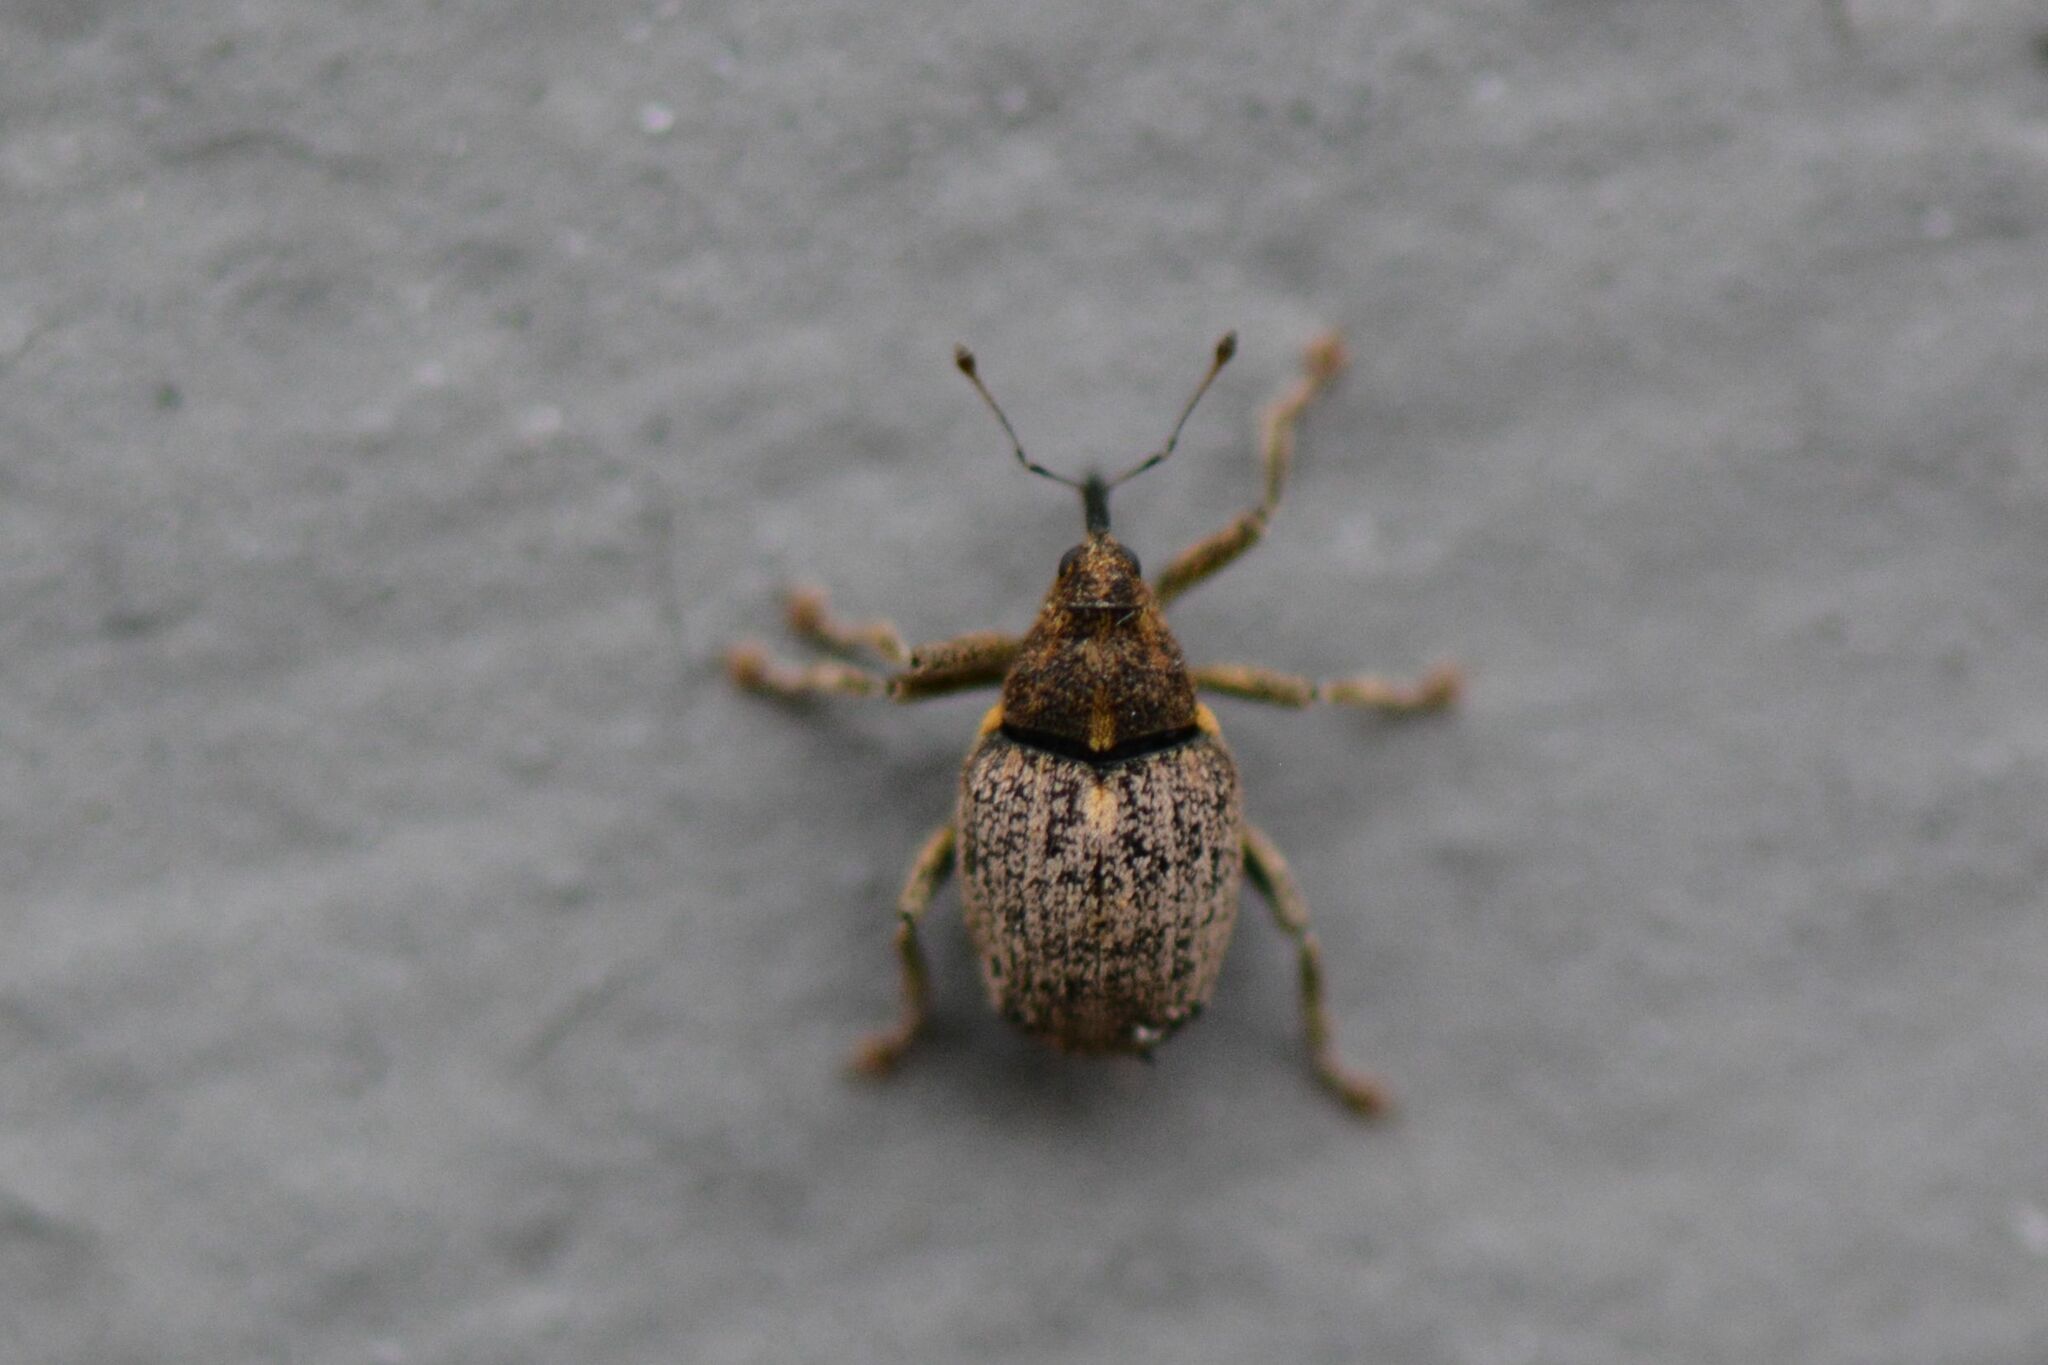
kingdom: Animalia
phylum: Arthropoda
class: Insecta
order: Coleoptera
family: Curculionidae
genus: Ceutorhynchus
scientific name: Ceutorhynchus pallidactylus
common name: Cabbage stem weavil
